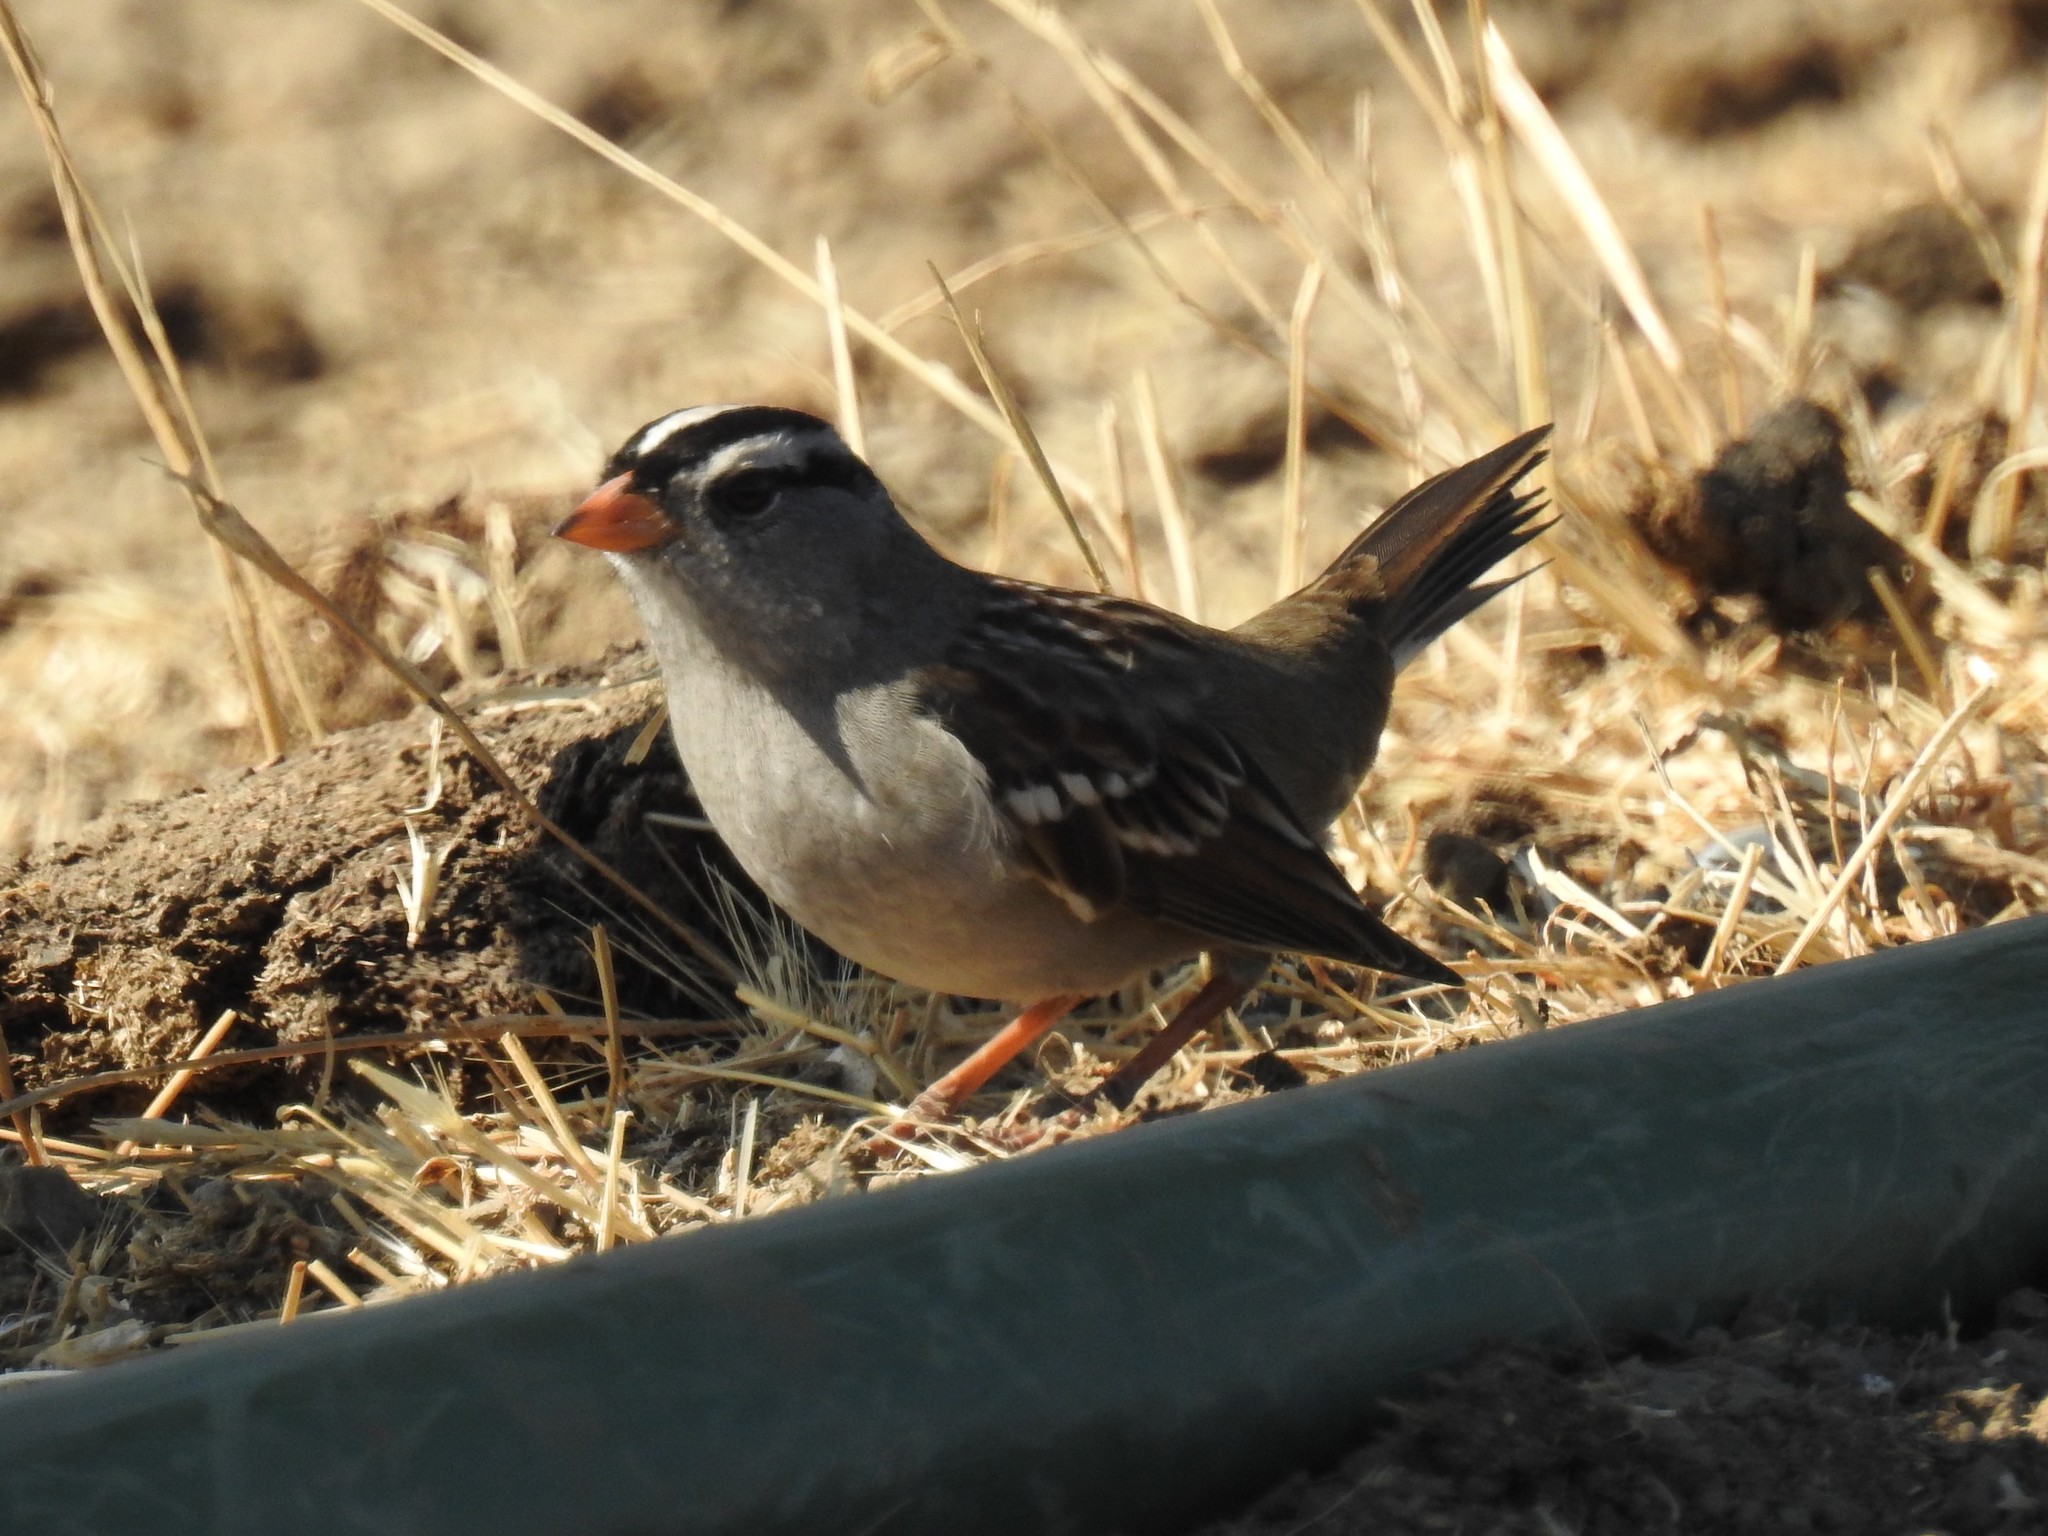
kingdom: Animalia
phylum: Chordata
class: Aves
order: Passeriformes
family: Passerellidae
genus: Zonotrichia
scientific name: Zonotrichia leucophrys
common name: White-crowned sparrow
